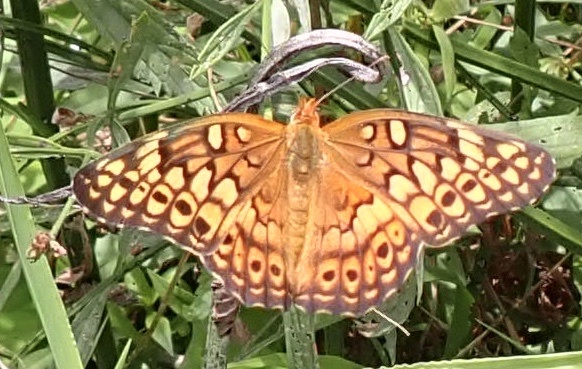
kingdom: Animalia
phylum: Arthropoda
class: Insecta
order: Lepidoptera
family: Nymphalidae
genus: Euptoieta
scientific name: Euptoieta claudia
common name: Variegated fritillary
